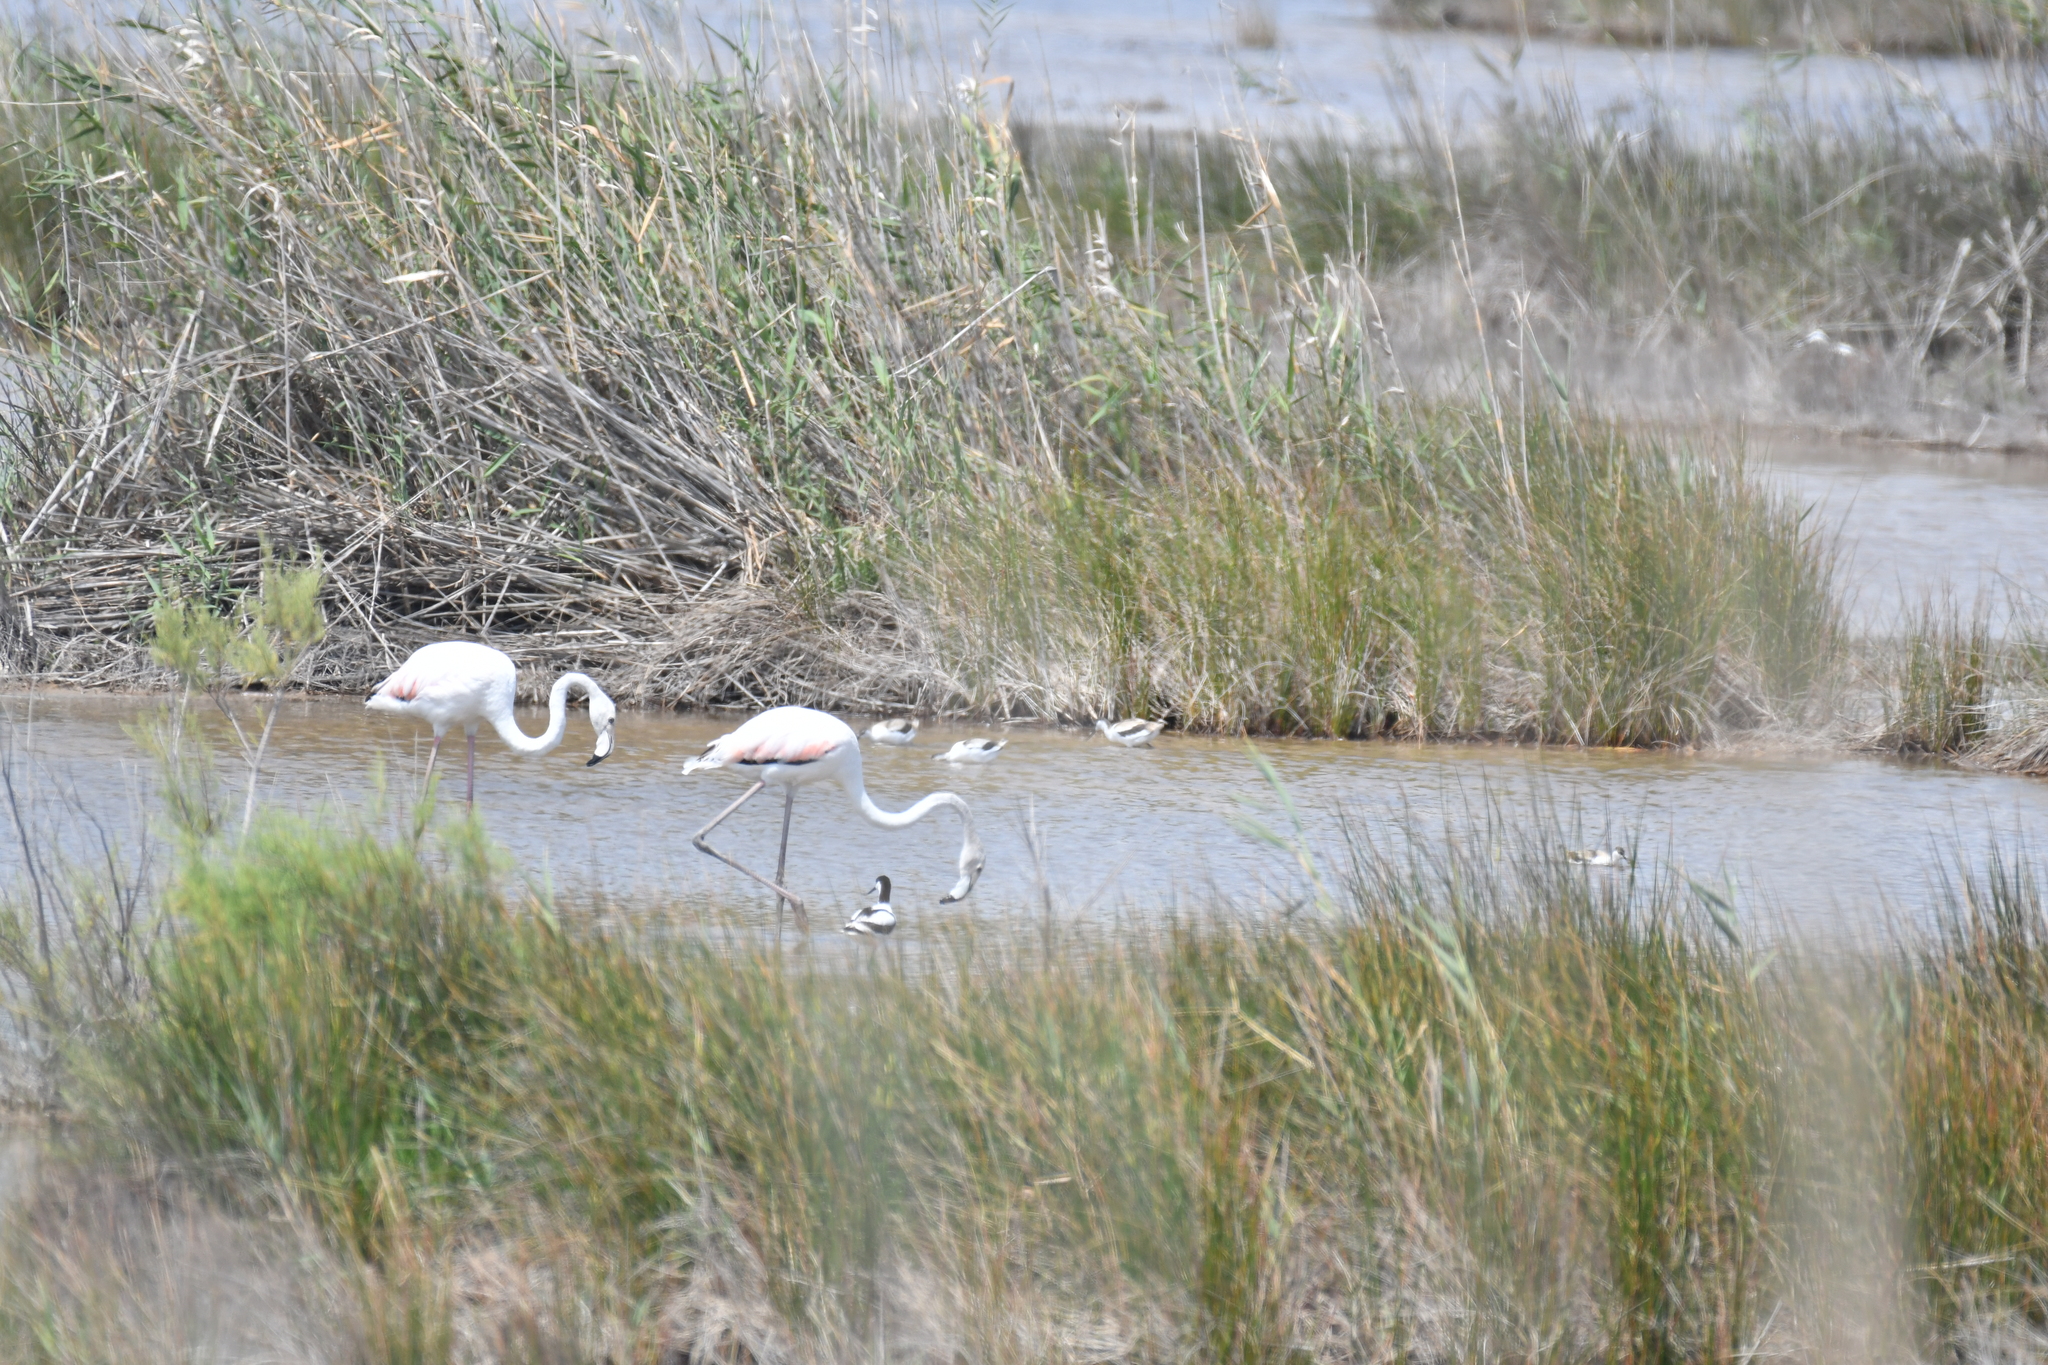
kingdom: Animalia
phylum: Chordata
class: Aves
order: Phoenicopteriformes
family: Phoenicopteridae
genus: Phoenicopterus
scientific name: Phoenicopterus roseus
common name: Greater flamingo
